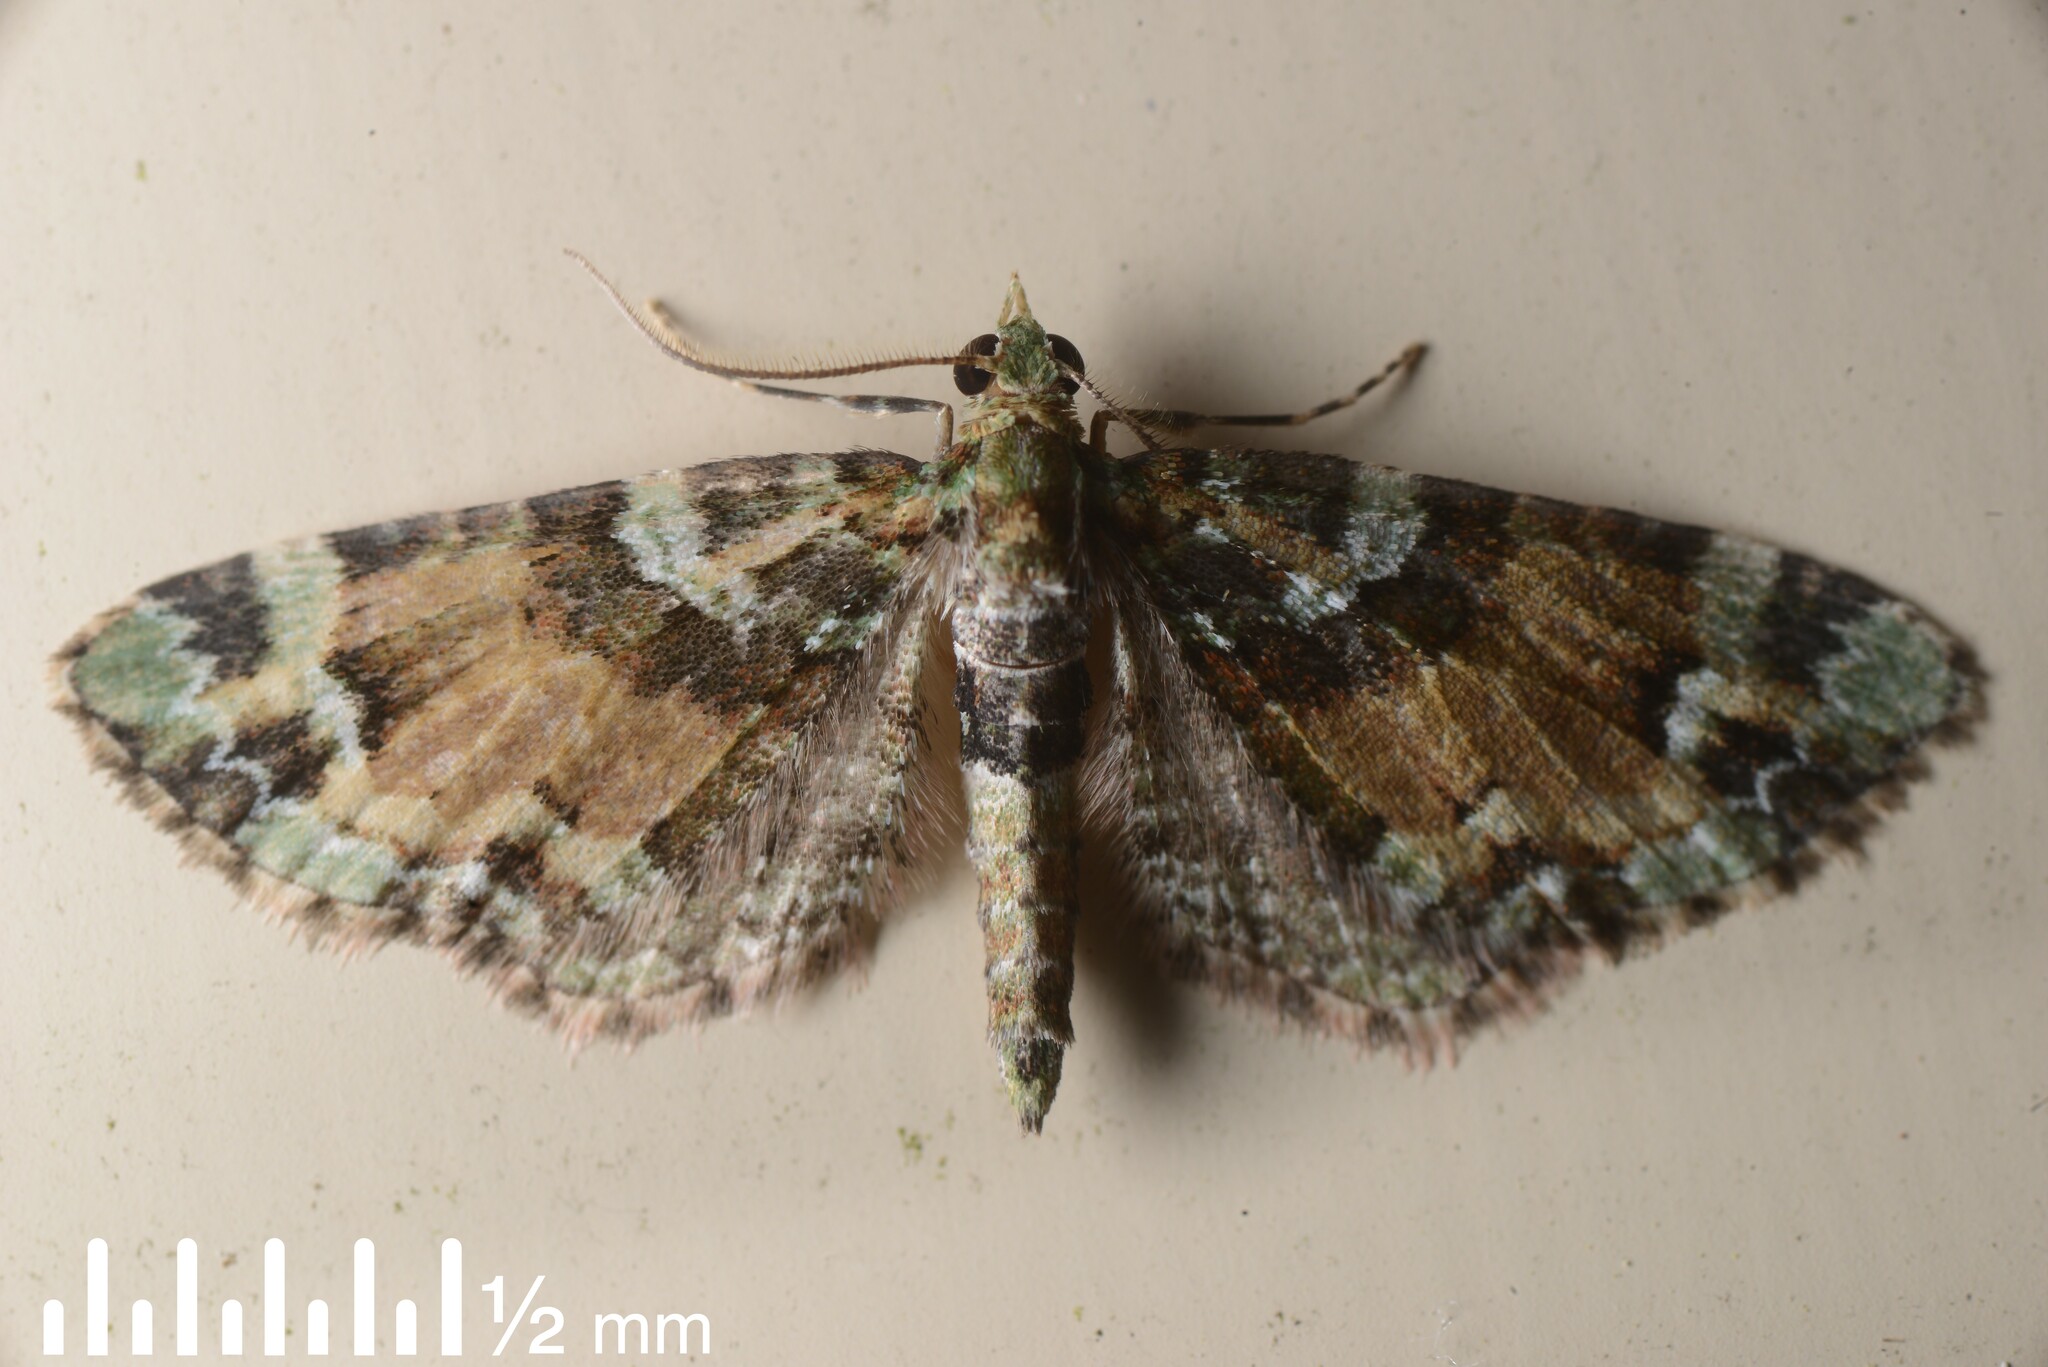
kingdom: Animalia
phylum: Arthropoda
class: Insecta
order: Lepidoptera
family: Geometridae
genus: Pasiphila
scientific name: Pasiphila bilineolata
